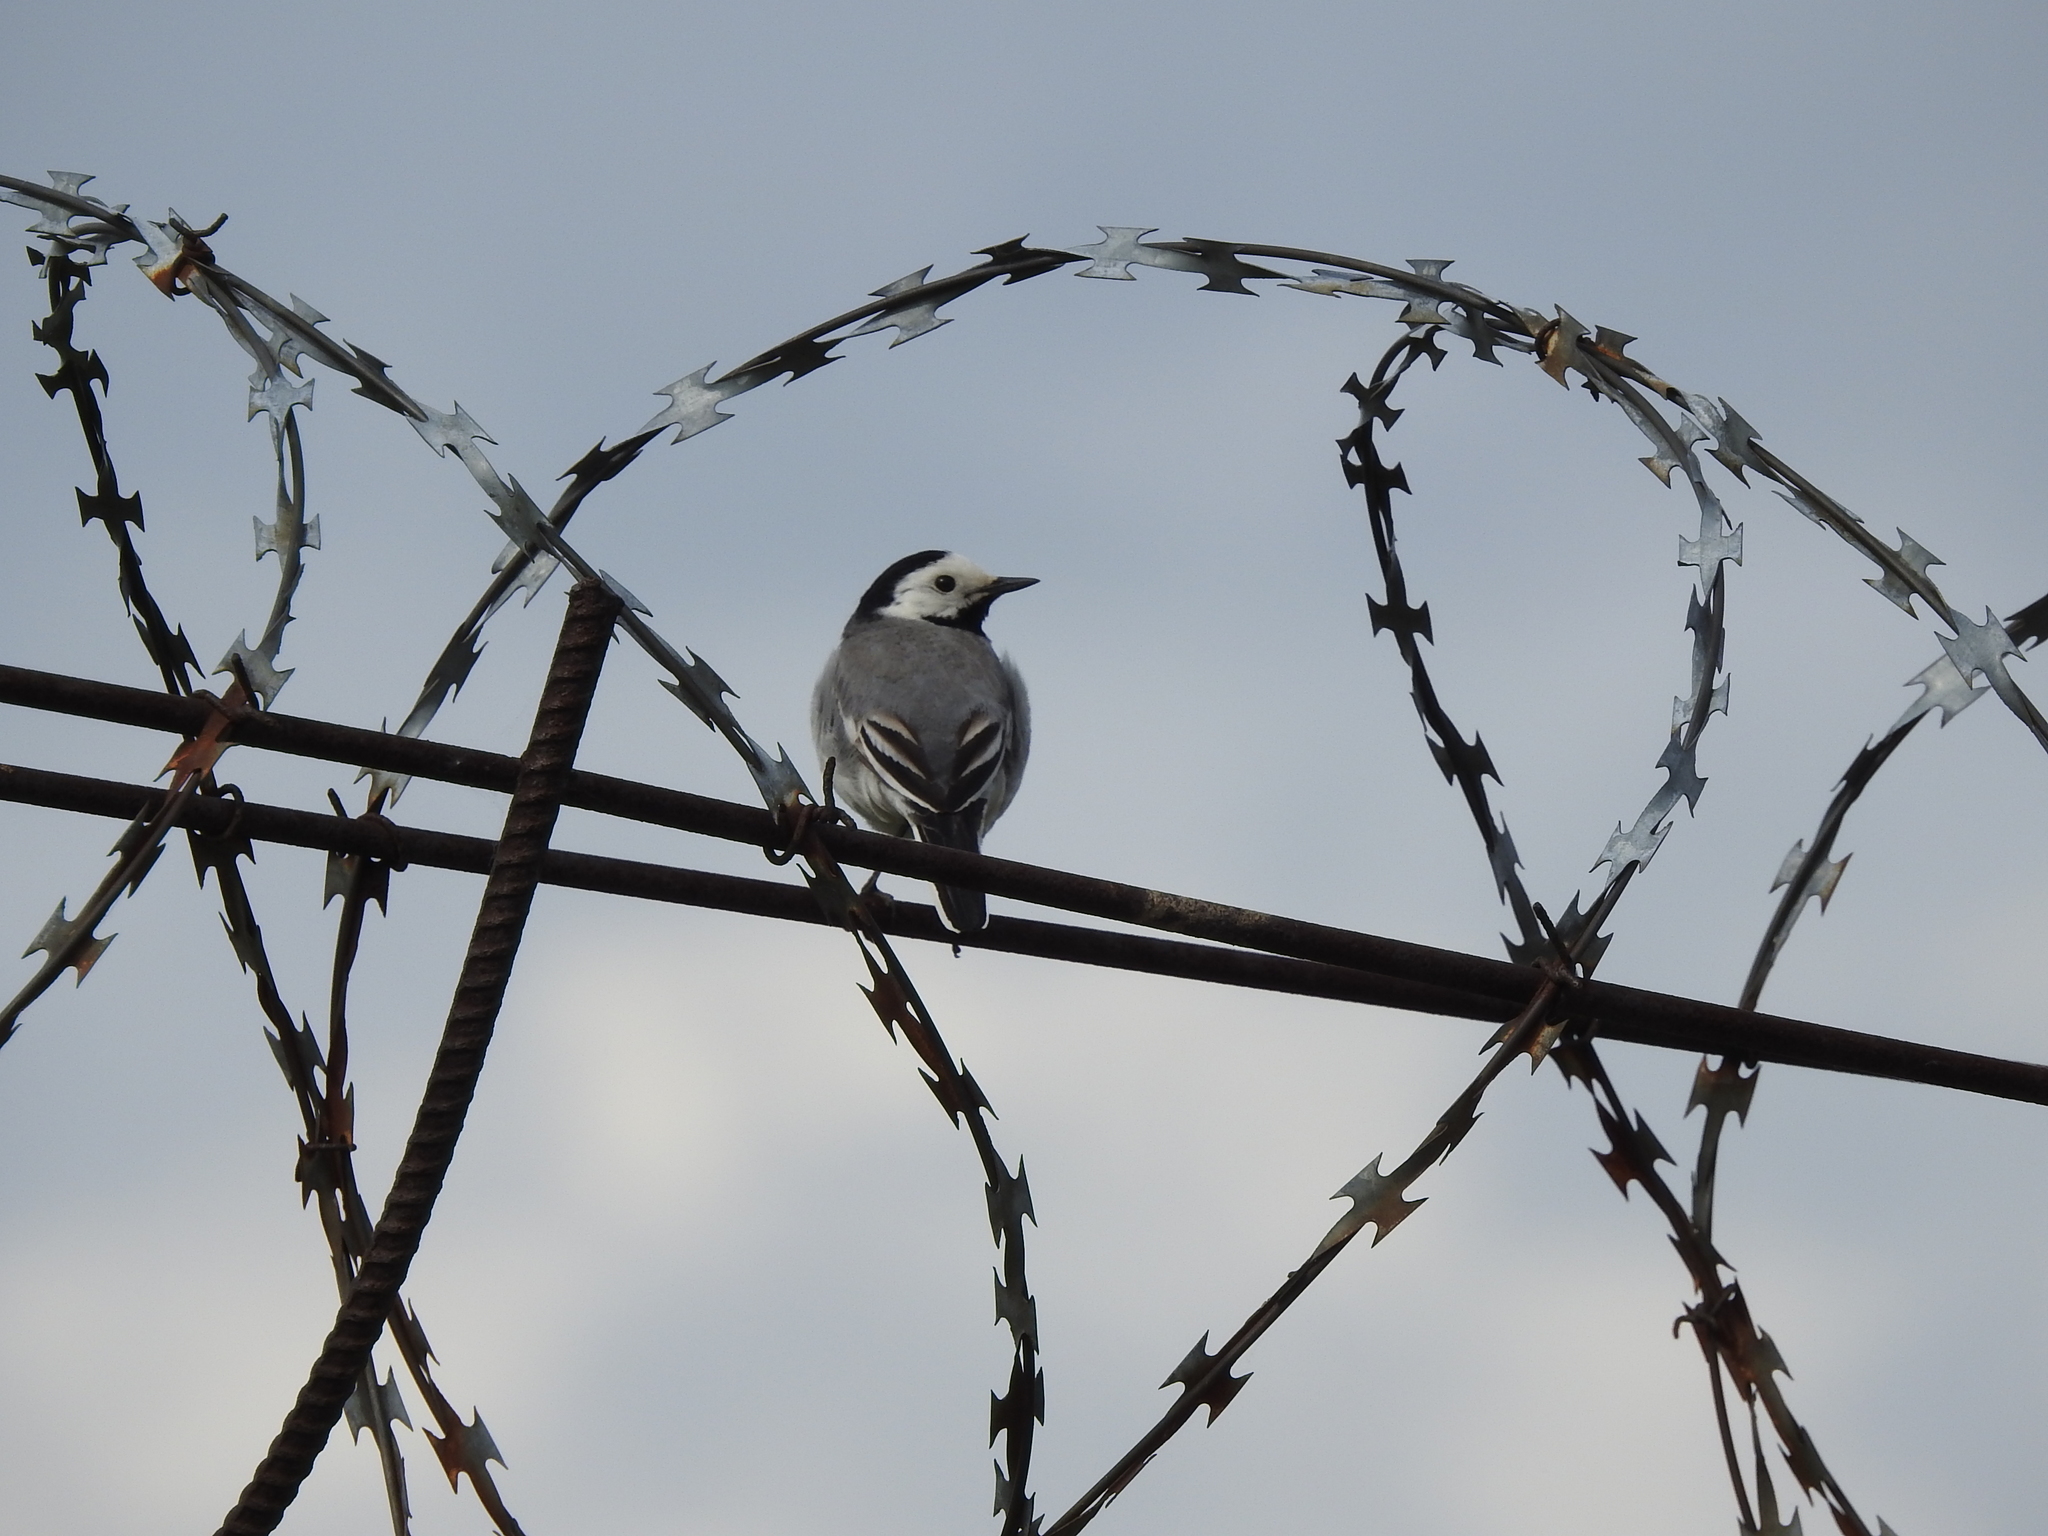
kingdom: Animalia
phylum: Chordata
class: Aves
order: Passeriformes
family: Motacillidae
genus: Motacilla
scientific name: Motacilla alba
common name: White wagtail
